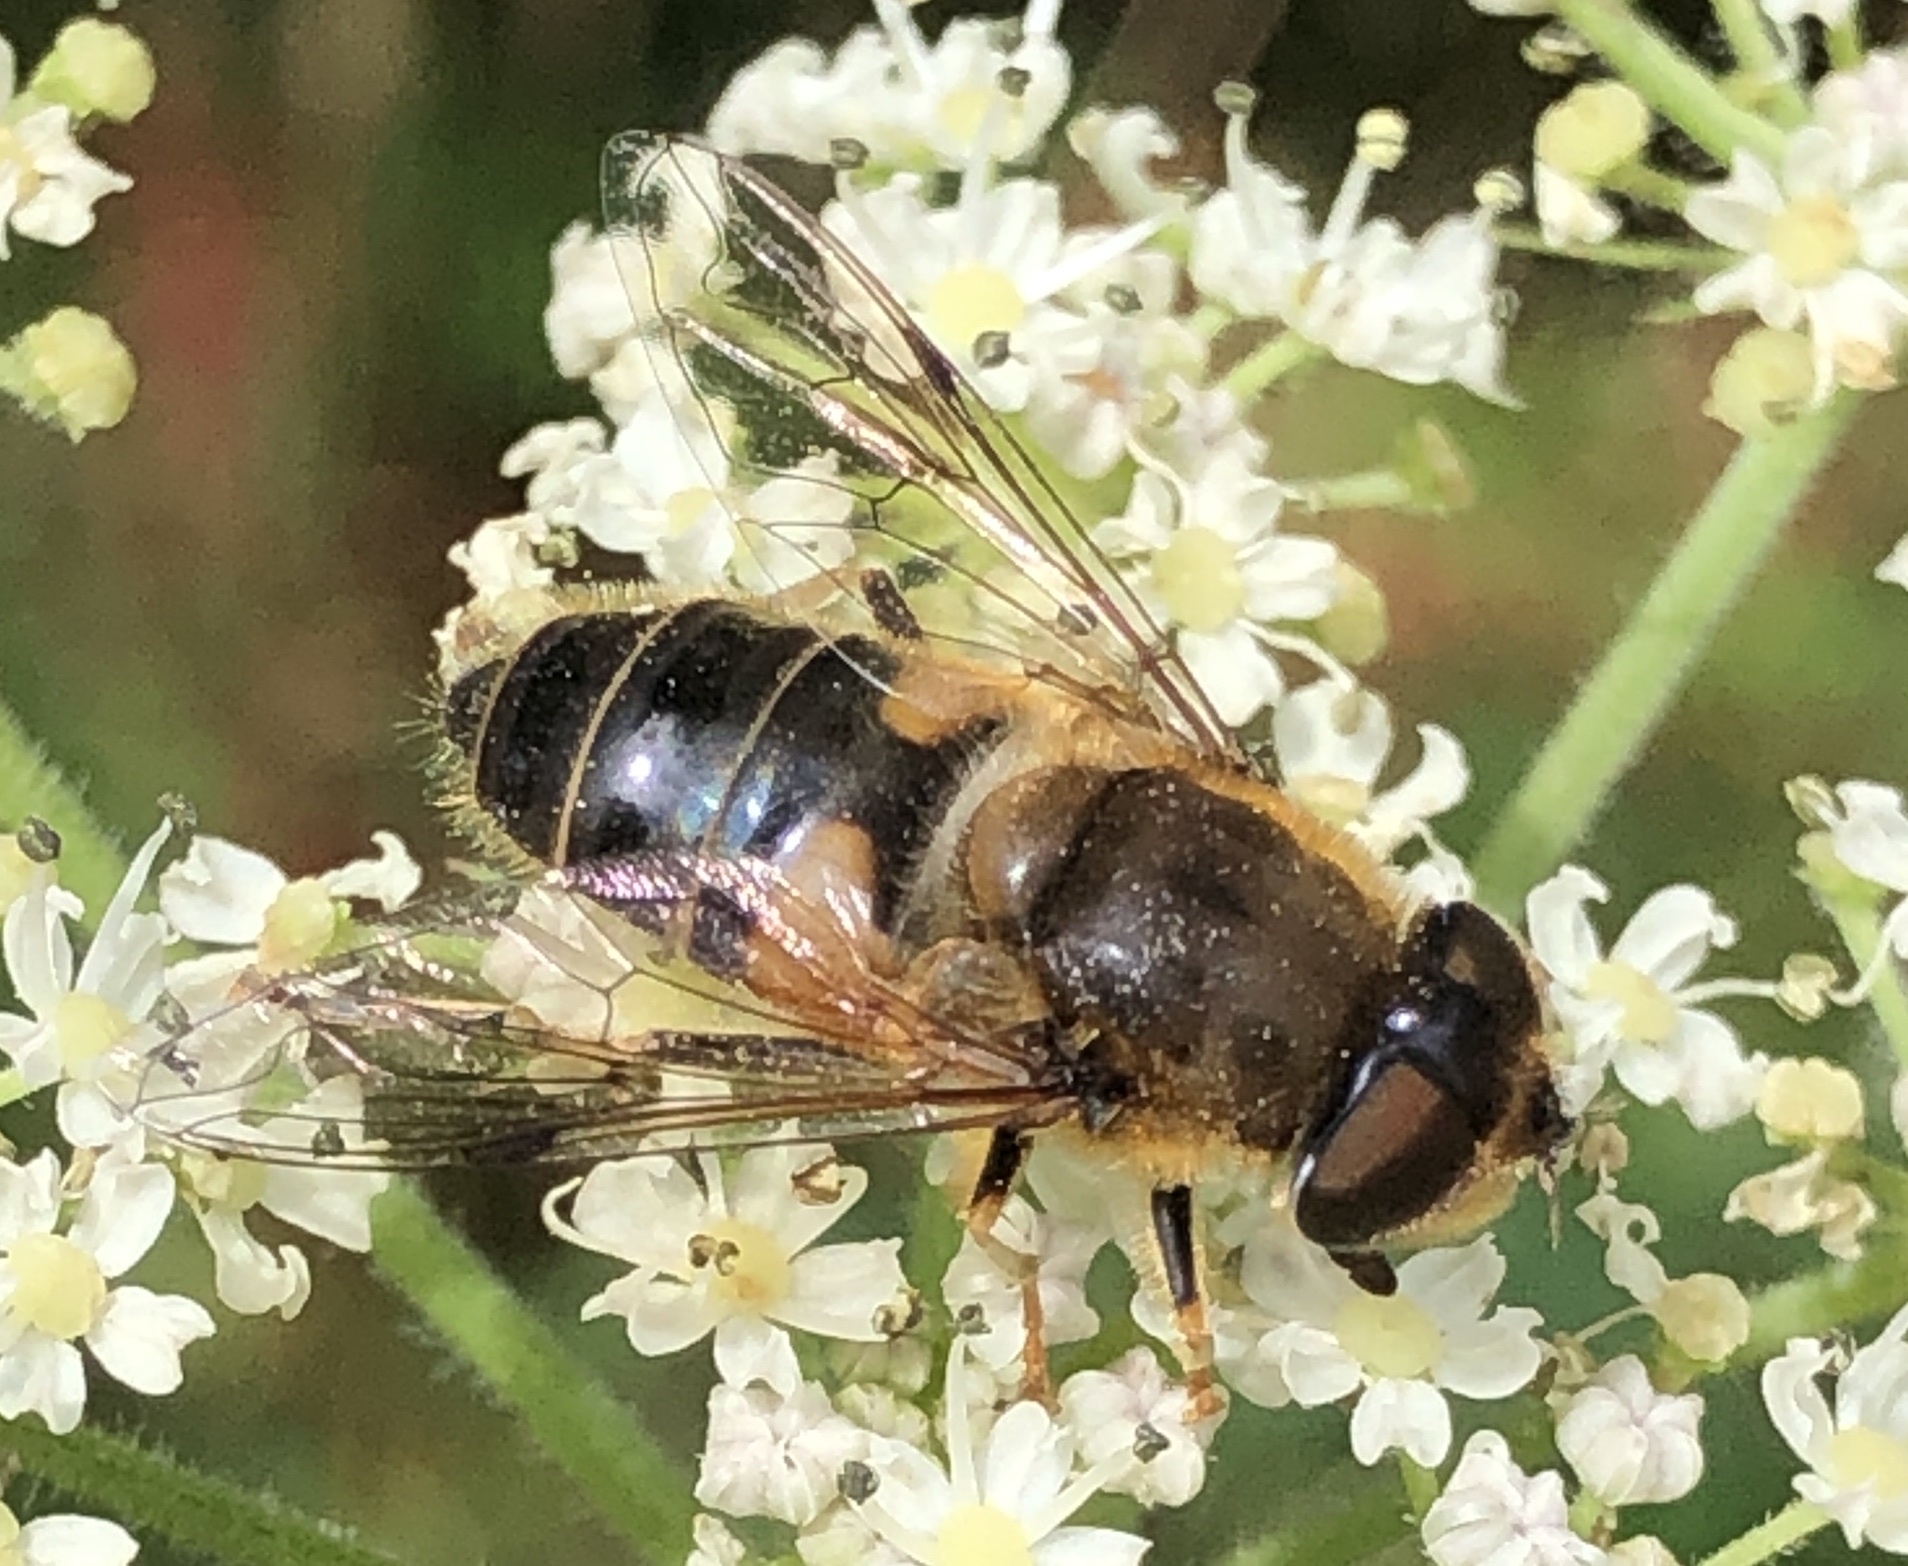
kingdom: Animalia
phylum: Arthropoda
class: Insecta
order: Diptera
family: Syrphidae
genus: Eristalis
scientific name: Eristalis pertinax
